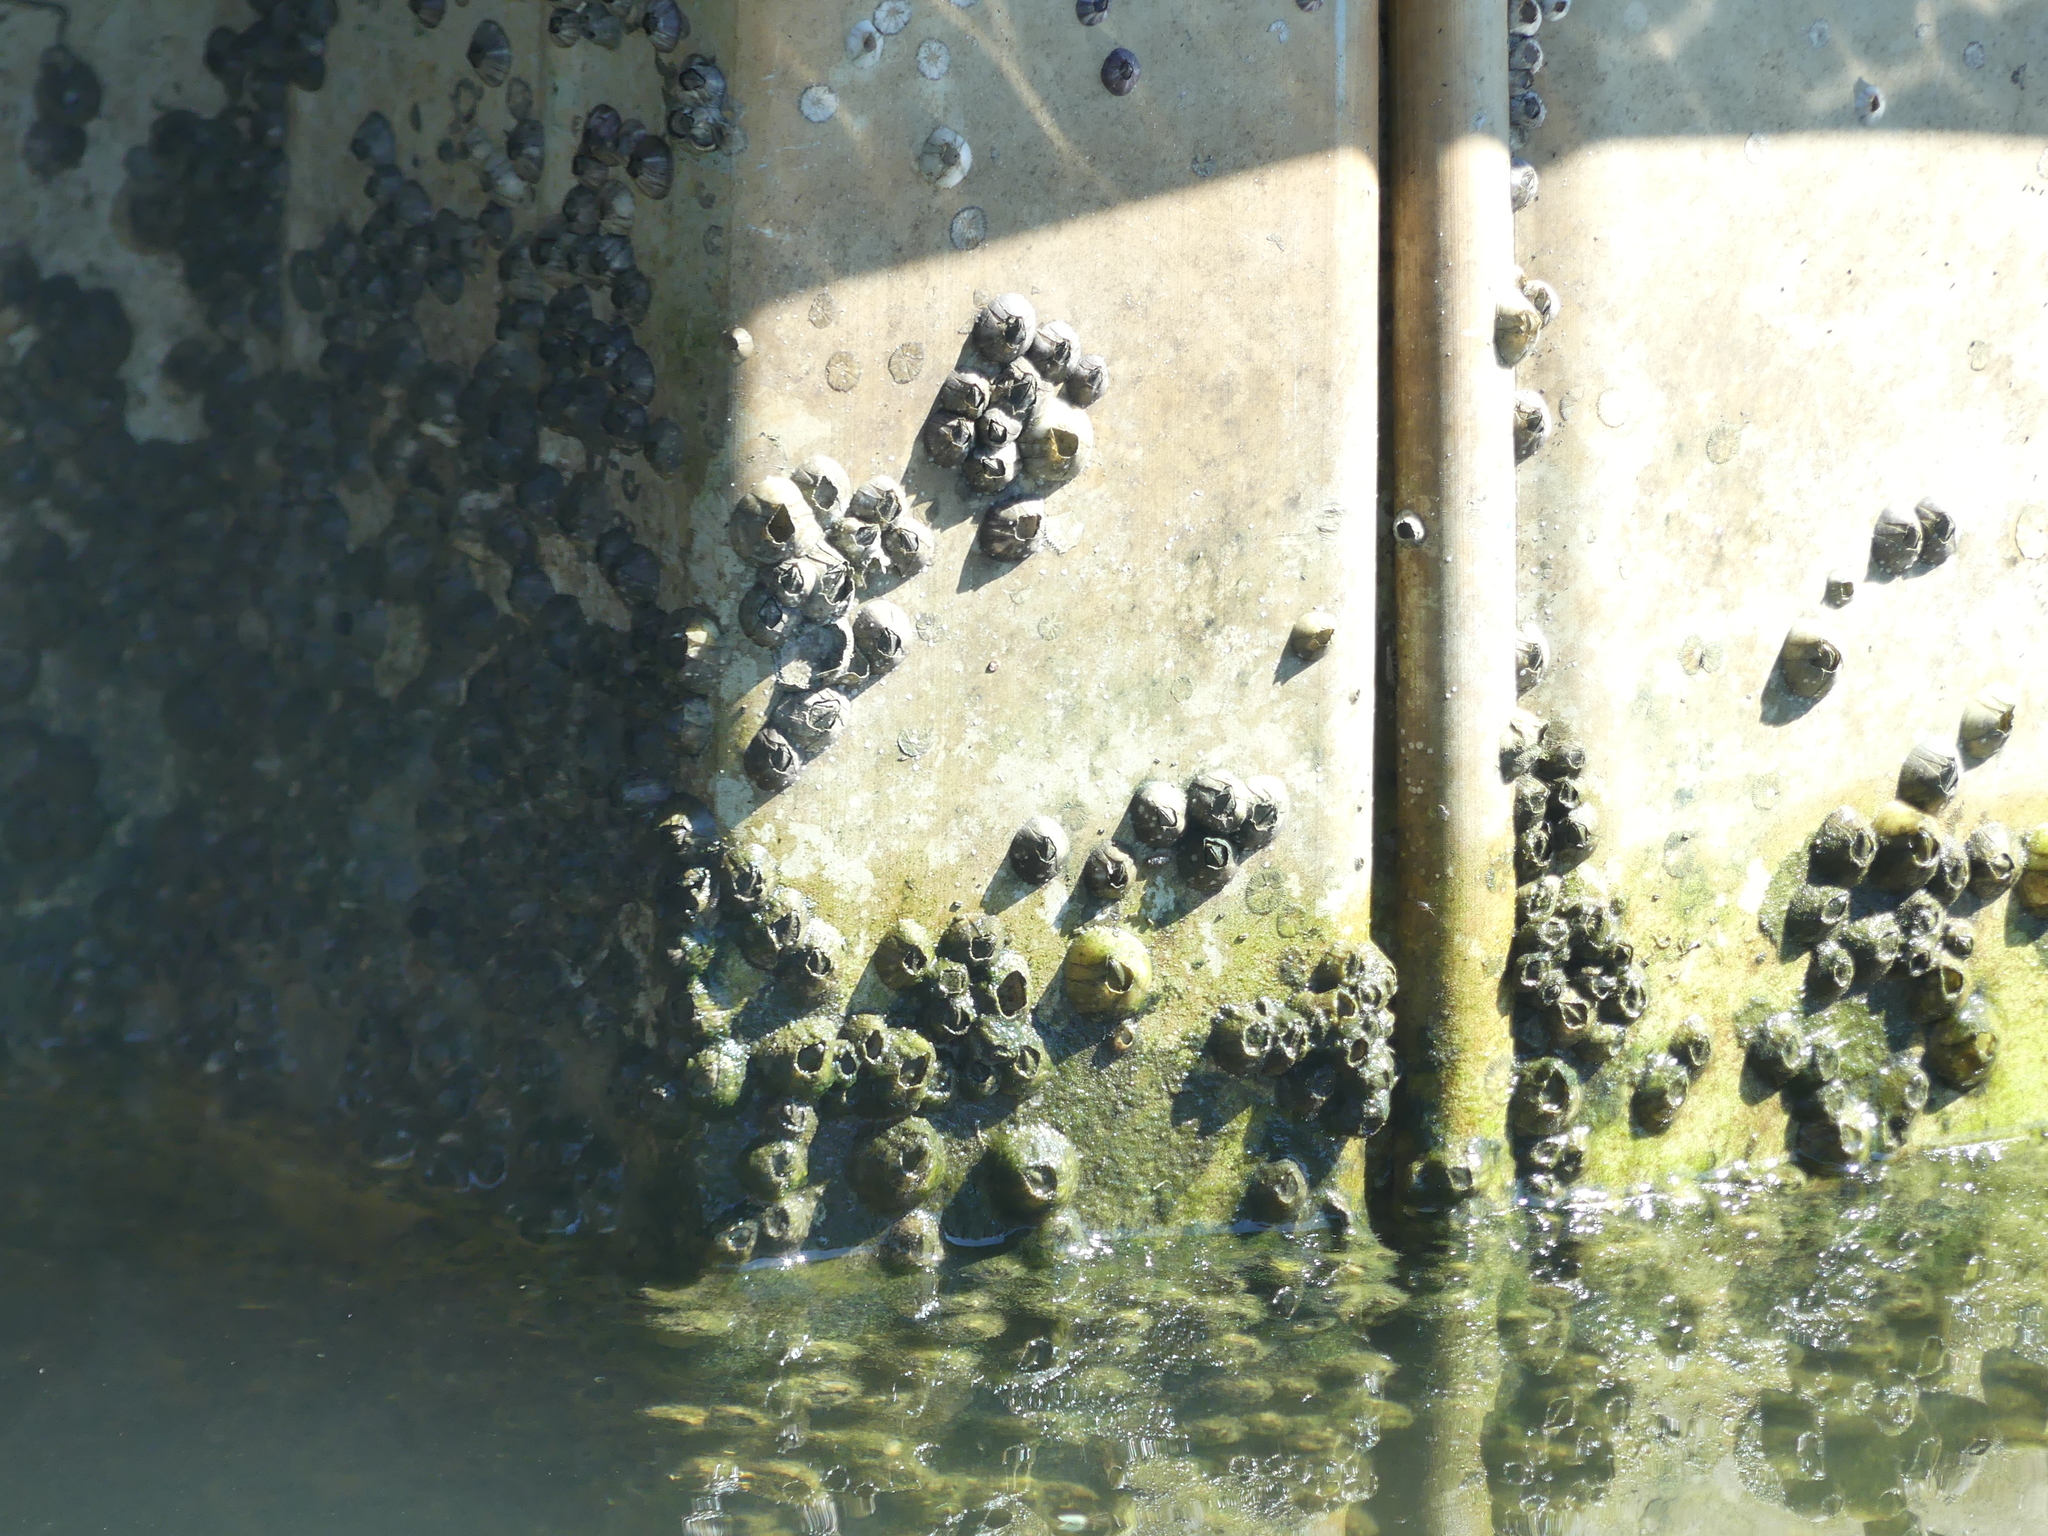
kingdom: Animalia
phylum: Arthropoda
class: Maxillopoda
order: Sessilia
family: Balanidae
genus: Amphibalanus
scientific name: Amphibalanus amphitrite
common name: Striped acorn barnacle
